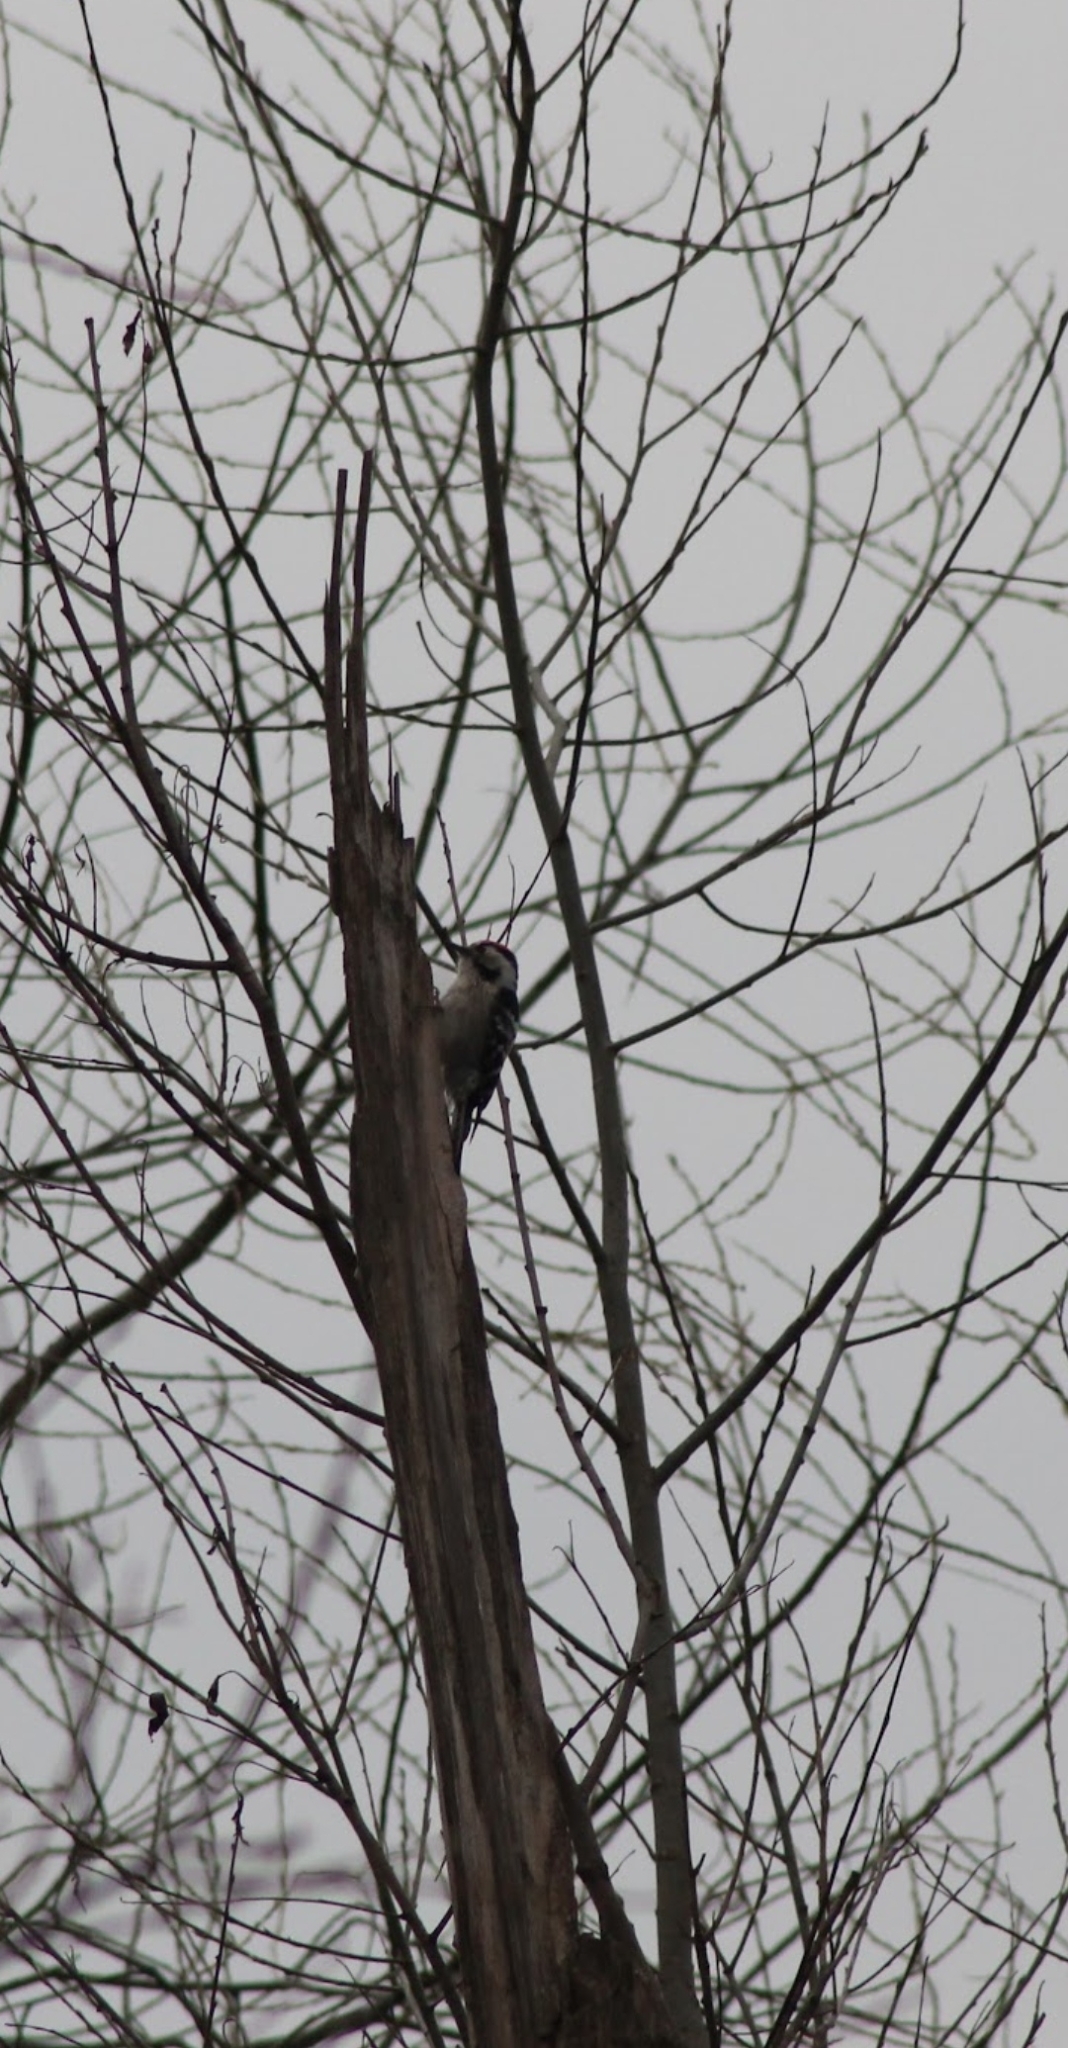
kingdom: Animalia
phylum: Chordata
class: Aves
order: Piciformes
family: Picidae
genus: Dryobates
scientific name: Dryobates minor
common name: Lesser spotted woodpecker
